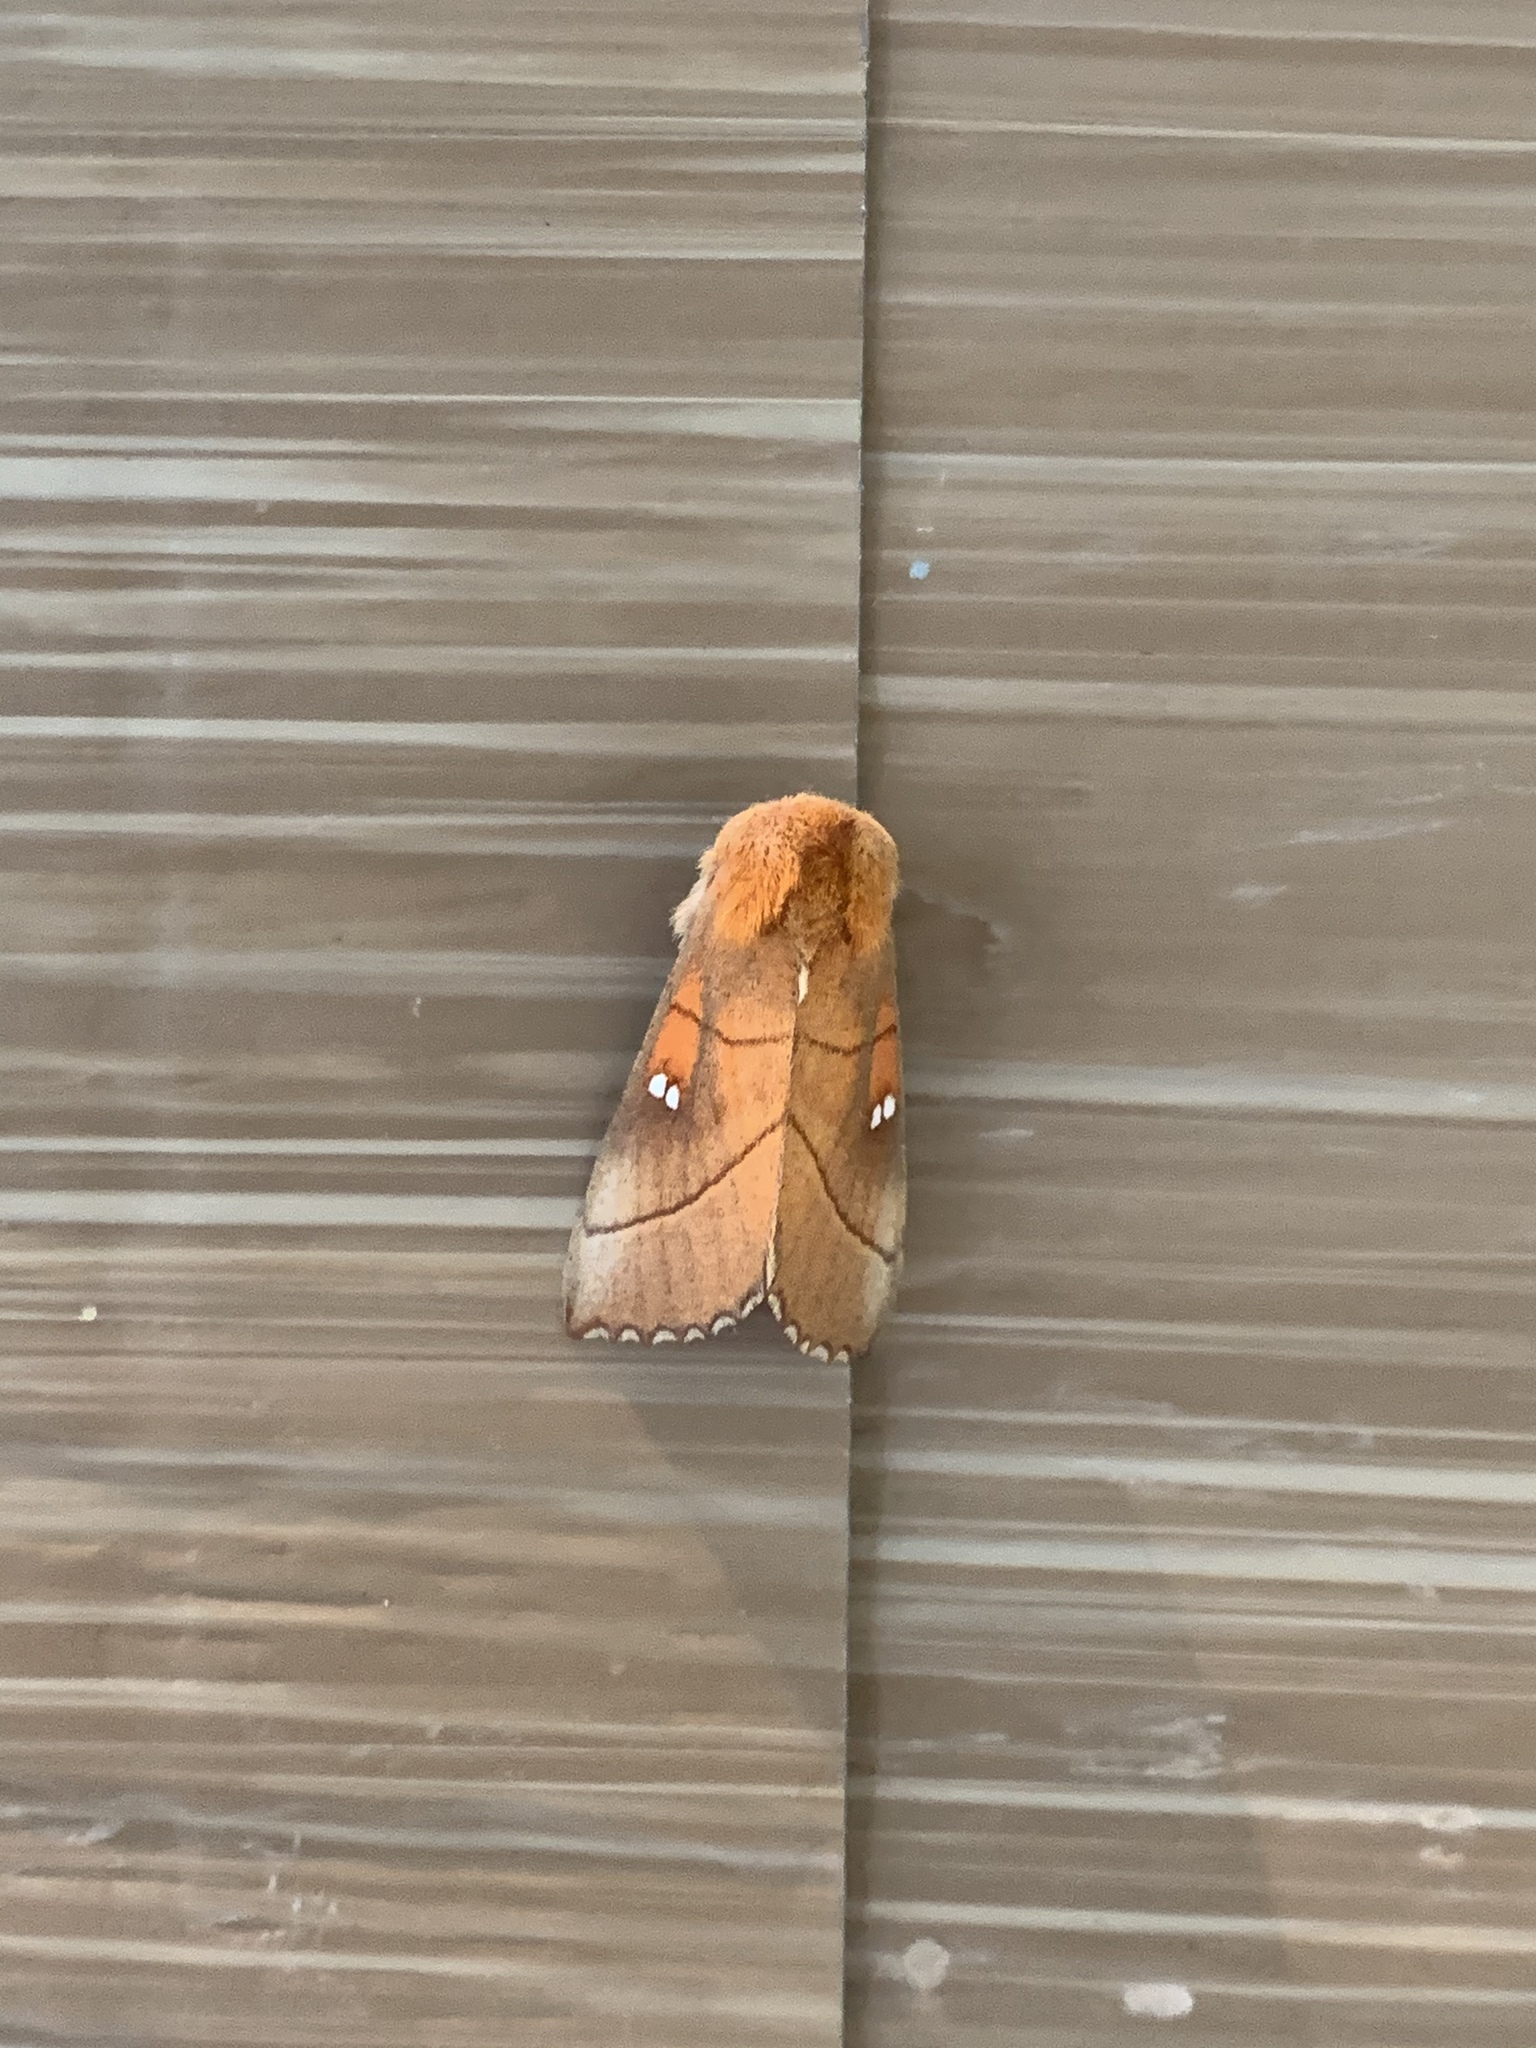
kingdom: Animalia
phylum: Arthropoda
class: Insecta
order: Lepidoptera
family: Notodontidae
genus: Nadata
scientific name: Nadata gibbosa
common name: White-dotted prominent
